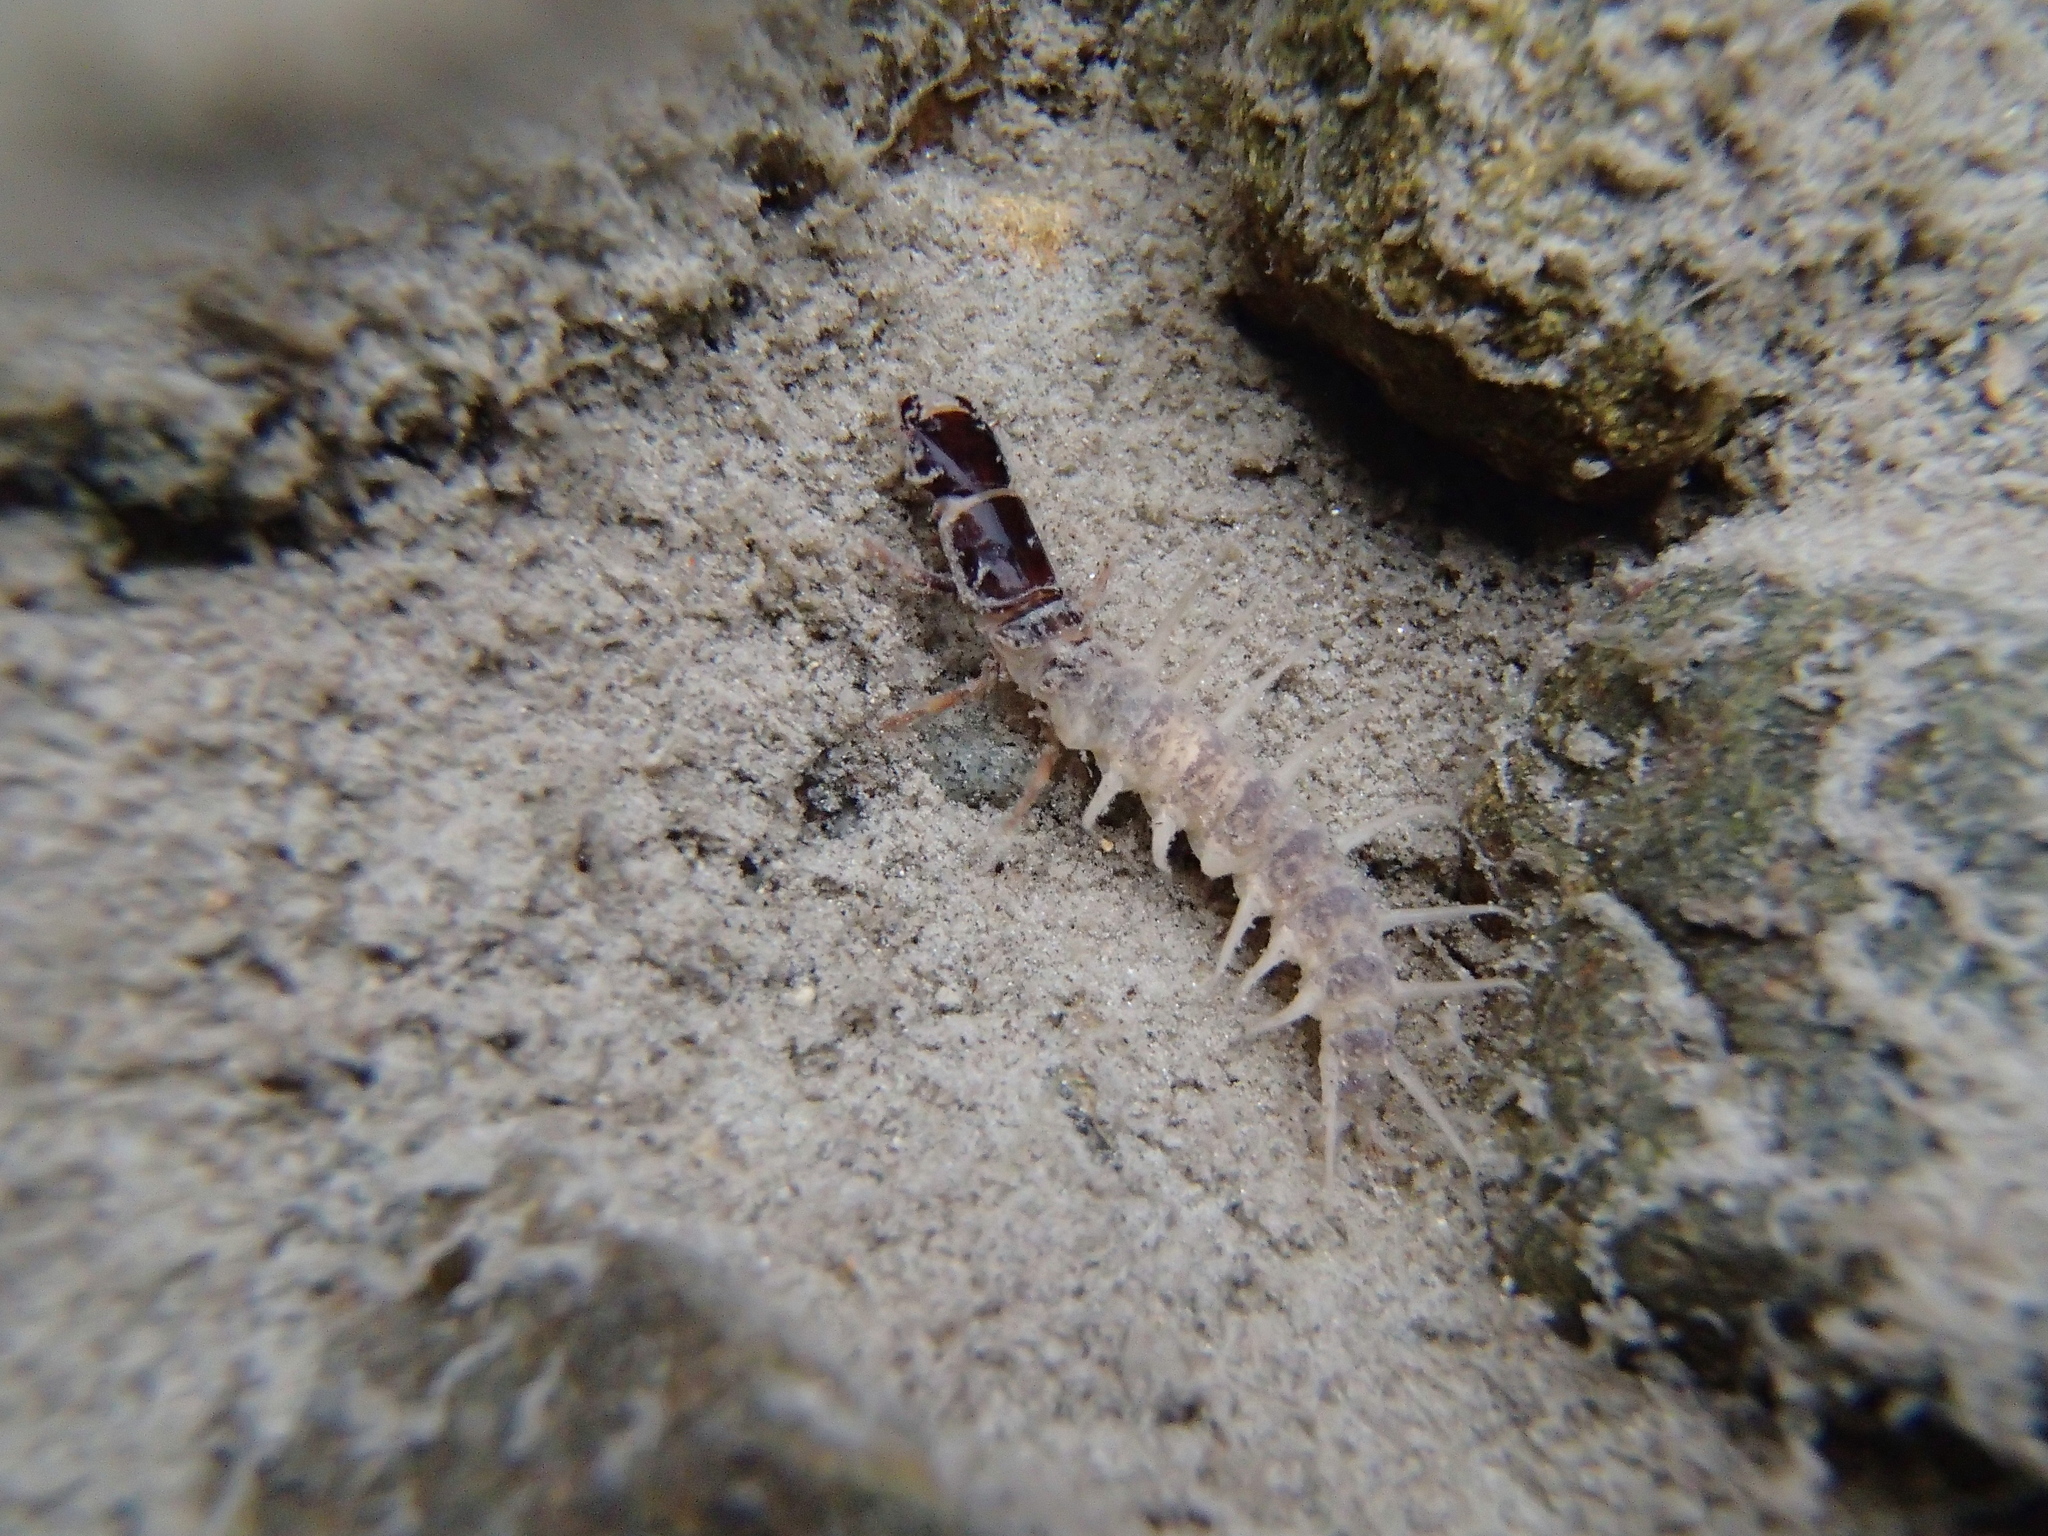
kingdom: Animalia
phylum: Arthropoda
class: Insecta
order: Megaloptera
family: Corydalidae
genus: Archichauliodes
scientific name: Archichauliodes diversus
